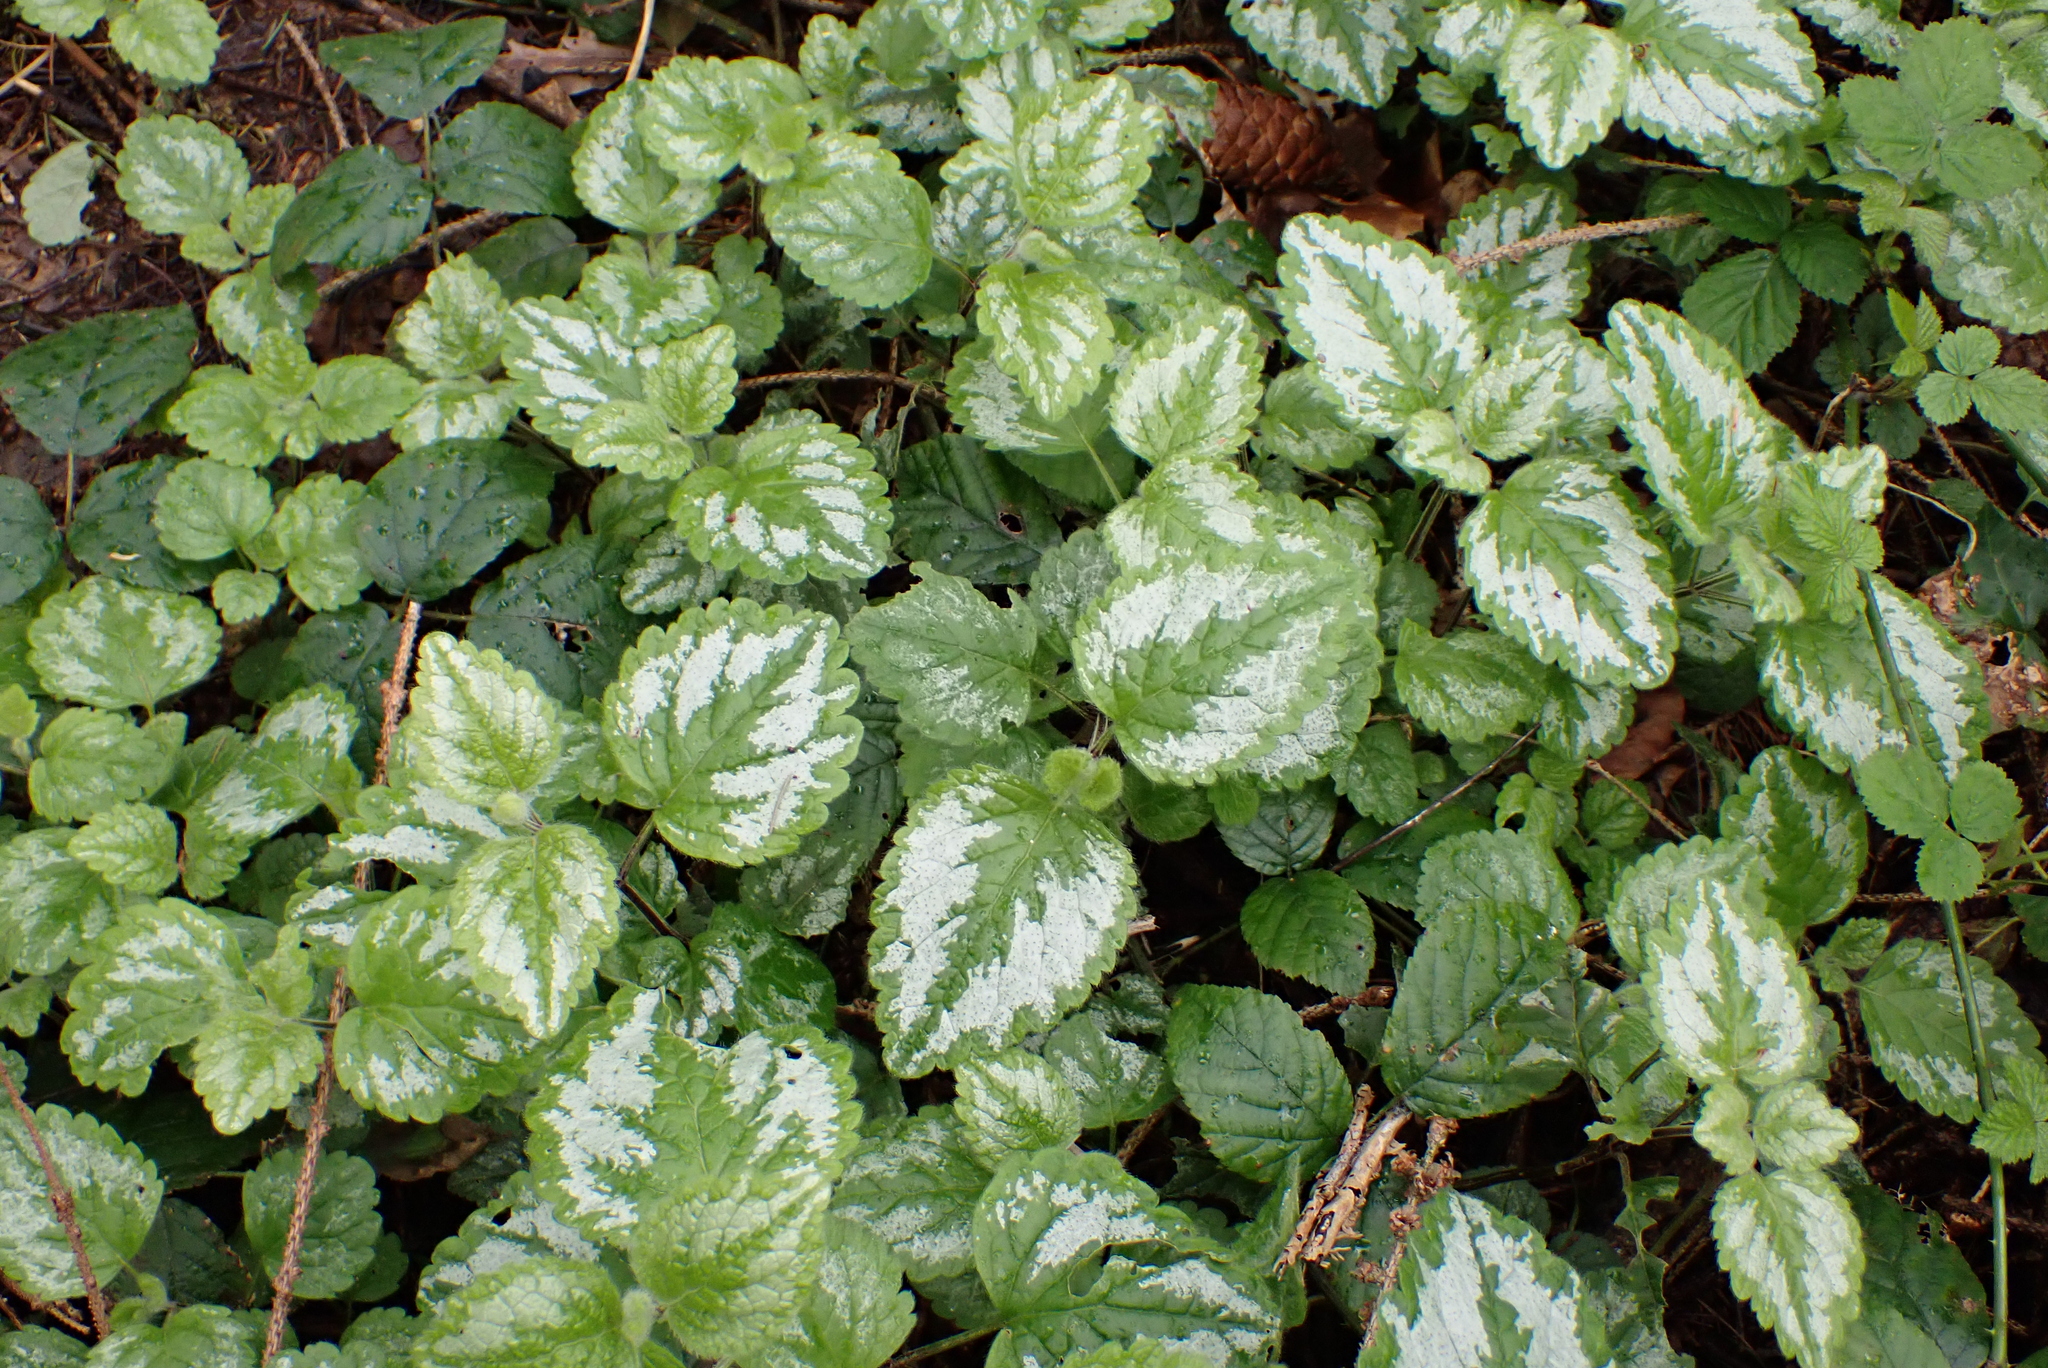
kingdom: Plantae
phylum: Tracheophyta
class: Magnoliopsida
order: Lamiales
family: Lamiaceae
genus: Lamium
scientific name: Lamium galeobdolon
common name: Yellow archangel
